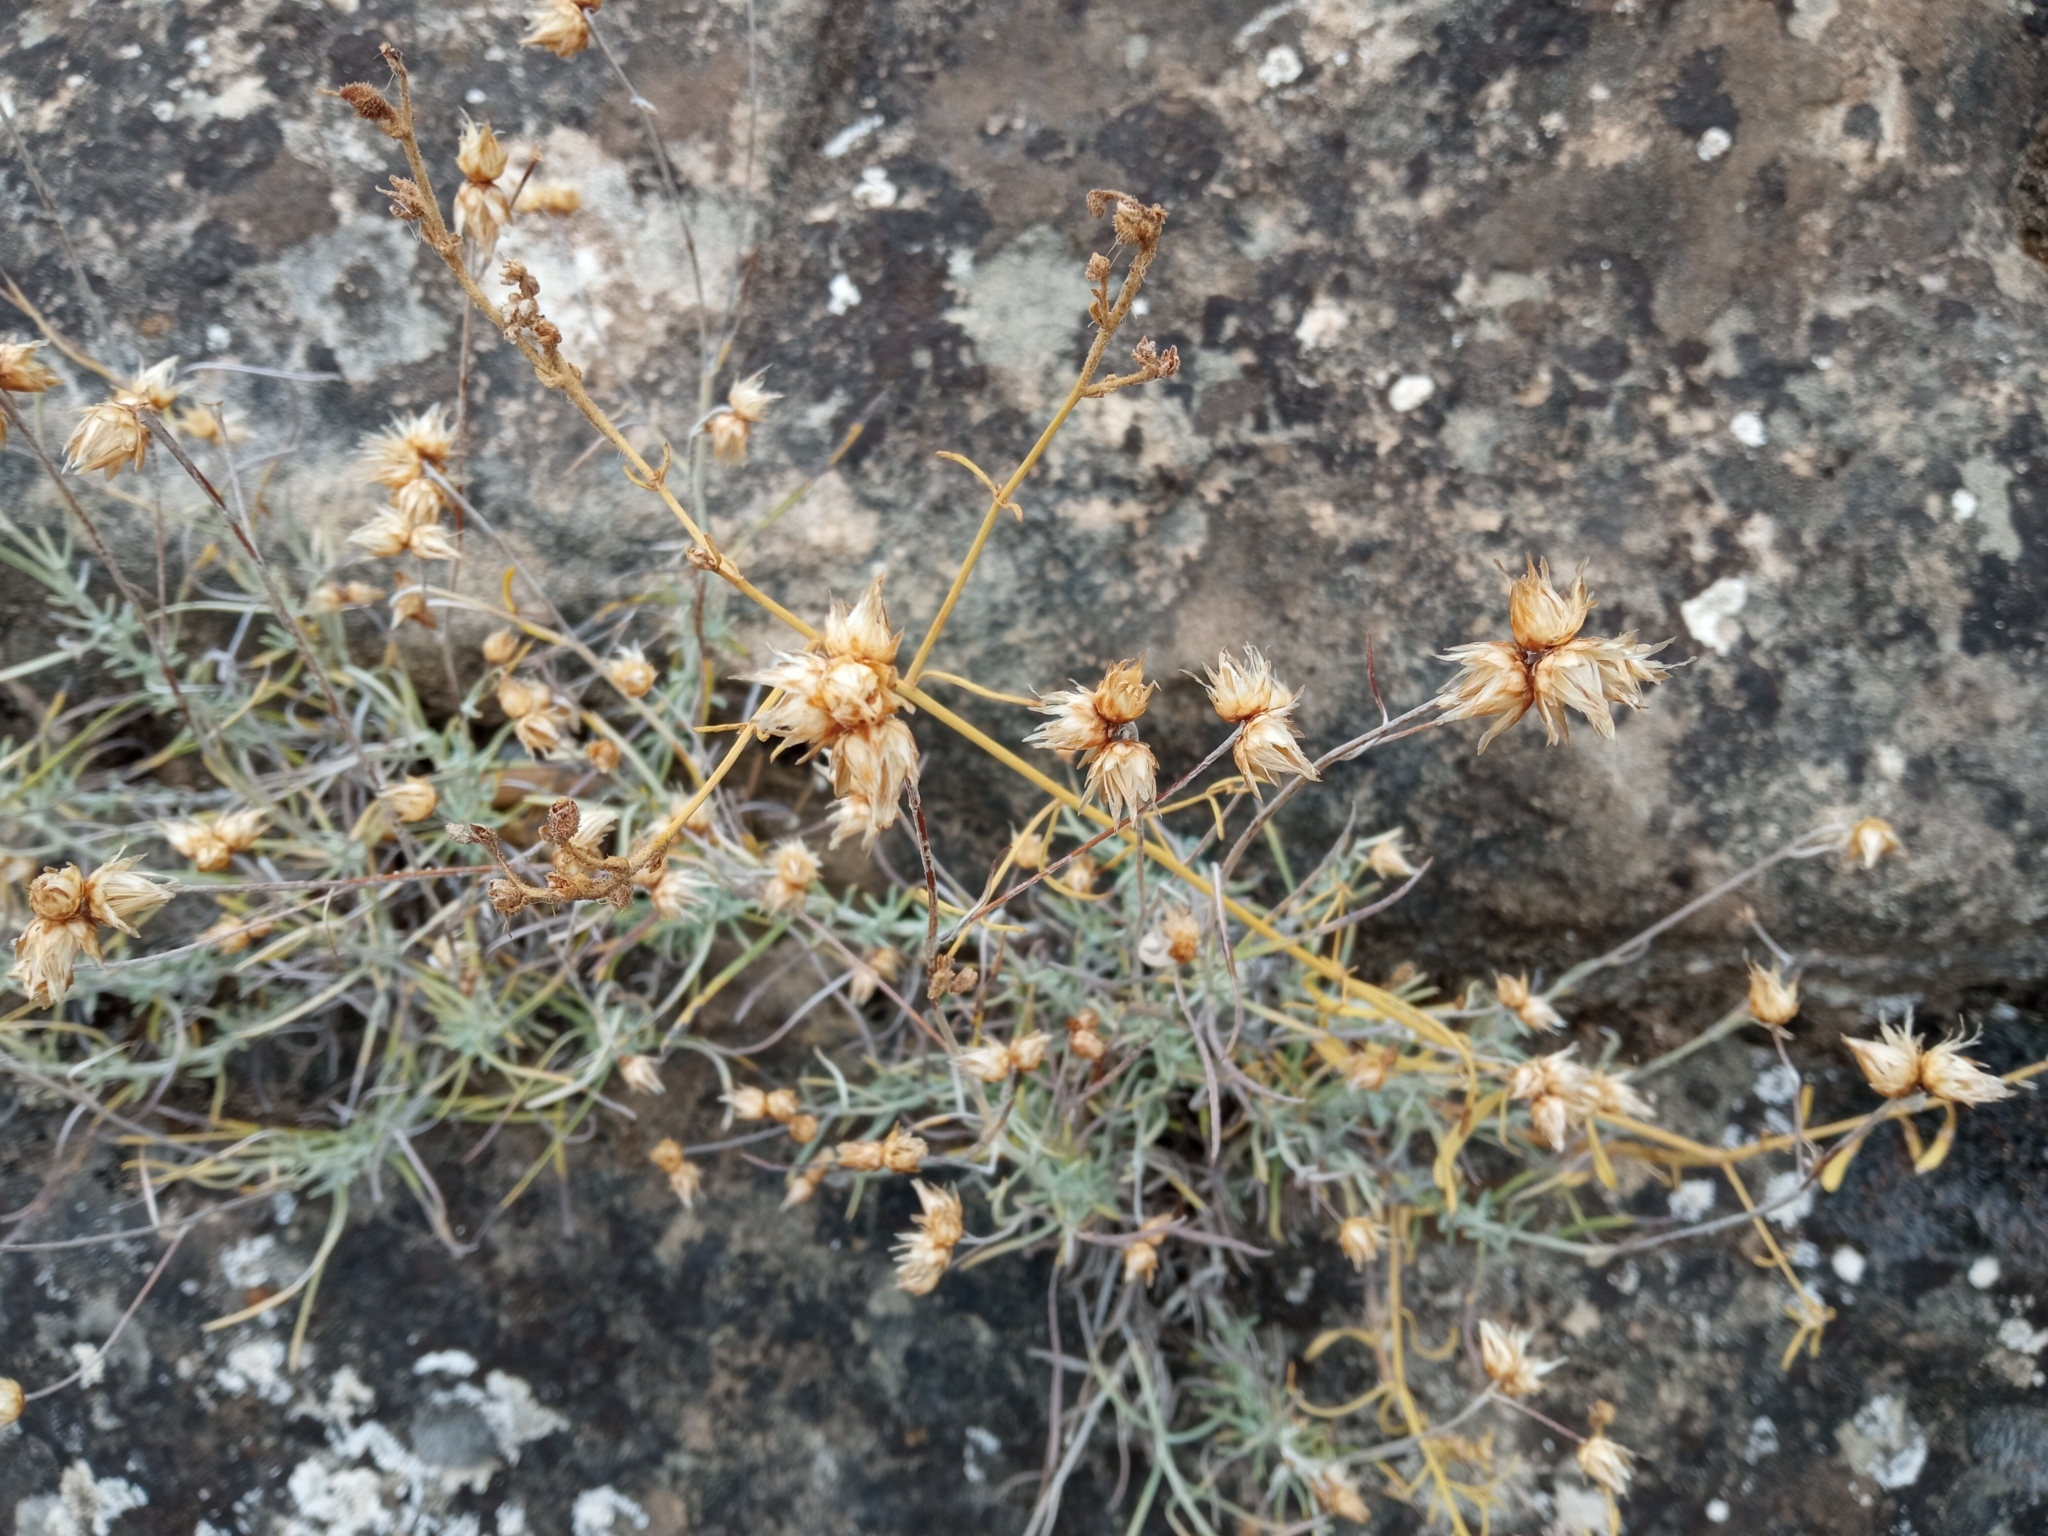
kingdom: Plantae
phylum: Tracheophyta
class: Magnoliopsida
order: Asterales
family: Asteraceae
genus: Phagnalon
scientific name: Phagnalon sordidum
